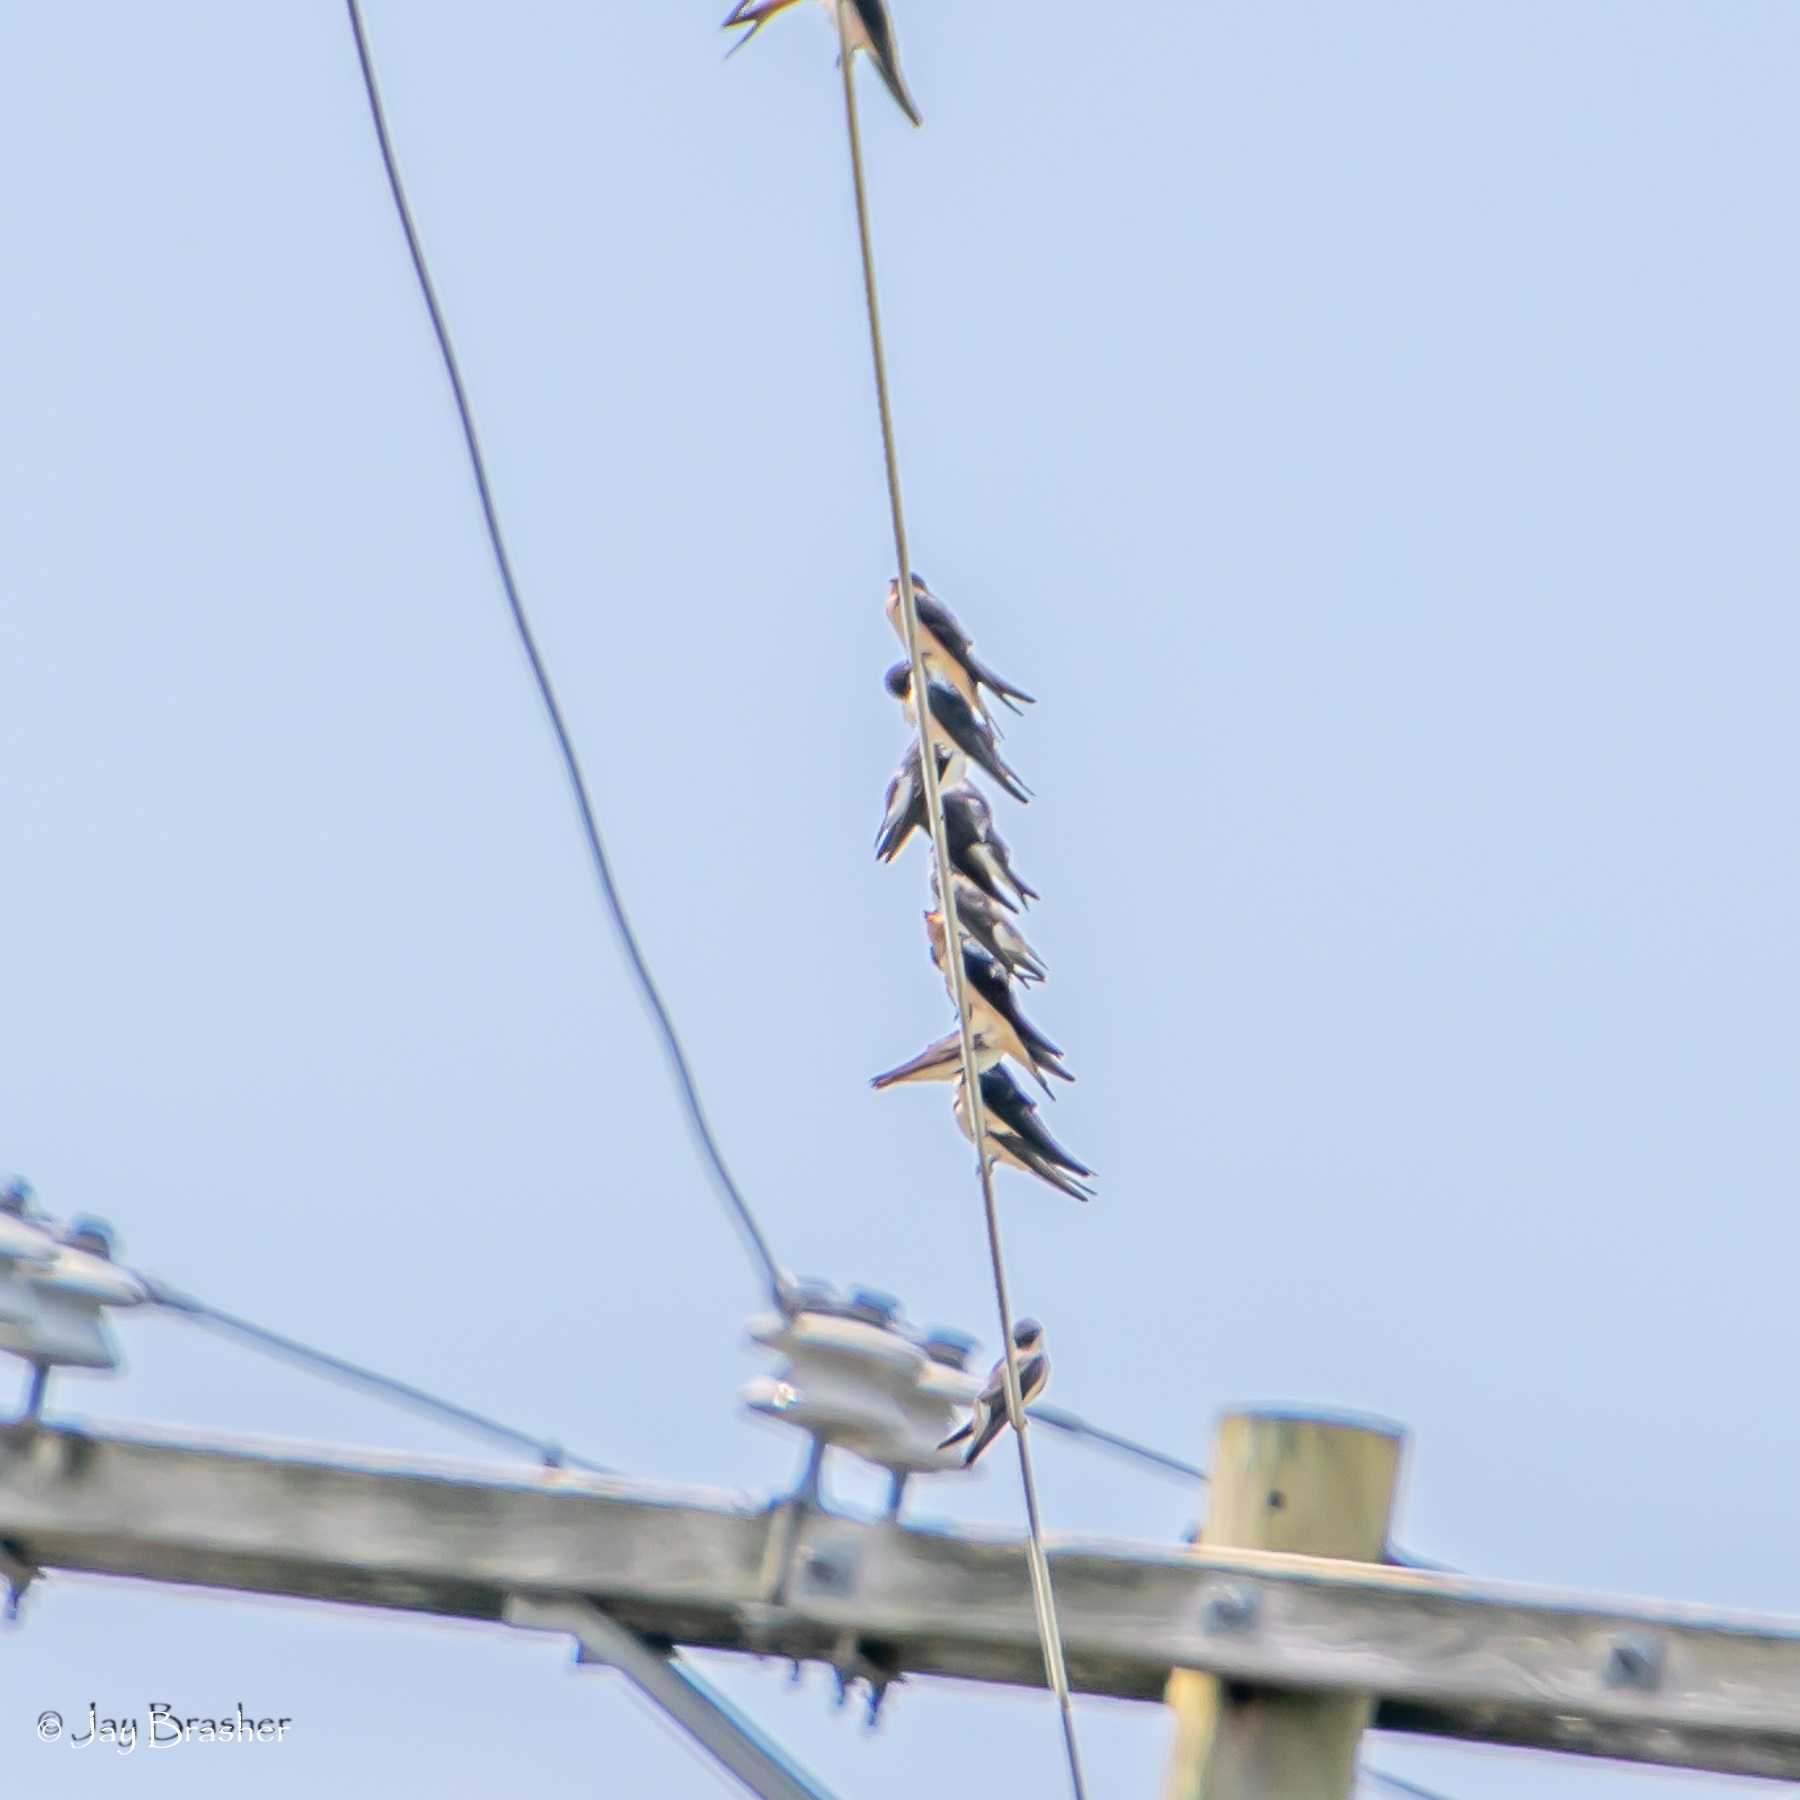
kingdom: Animalia
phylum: Chordata
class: Aves
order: Passeriformes
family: Hirundinidae
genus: Hirundo
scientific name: Hirundo rustica
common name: Barn swallow
